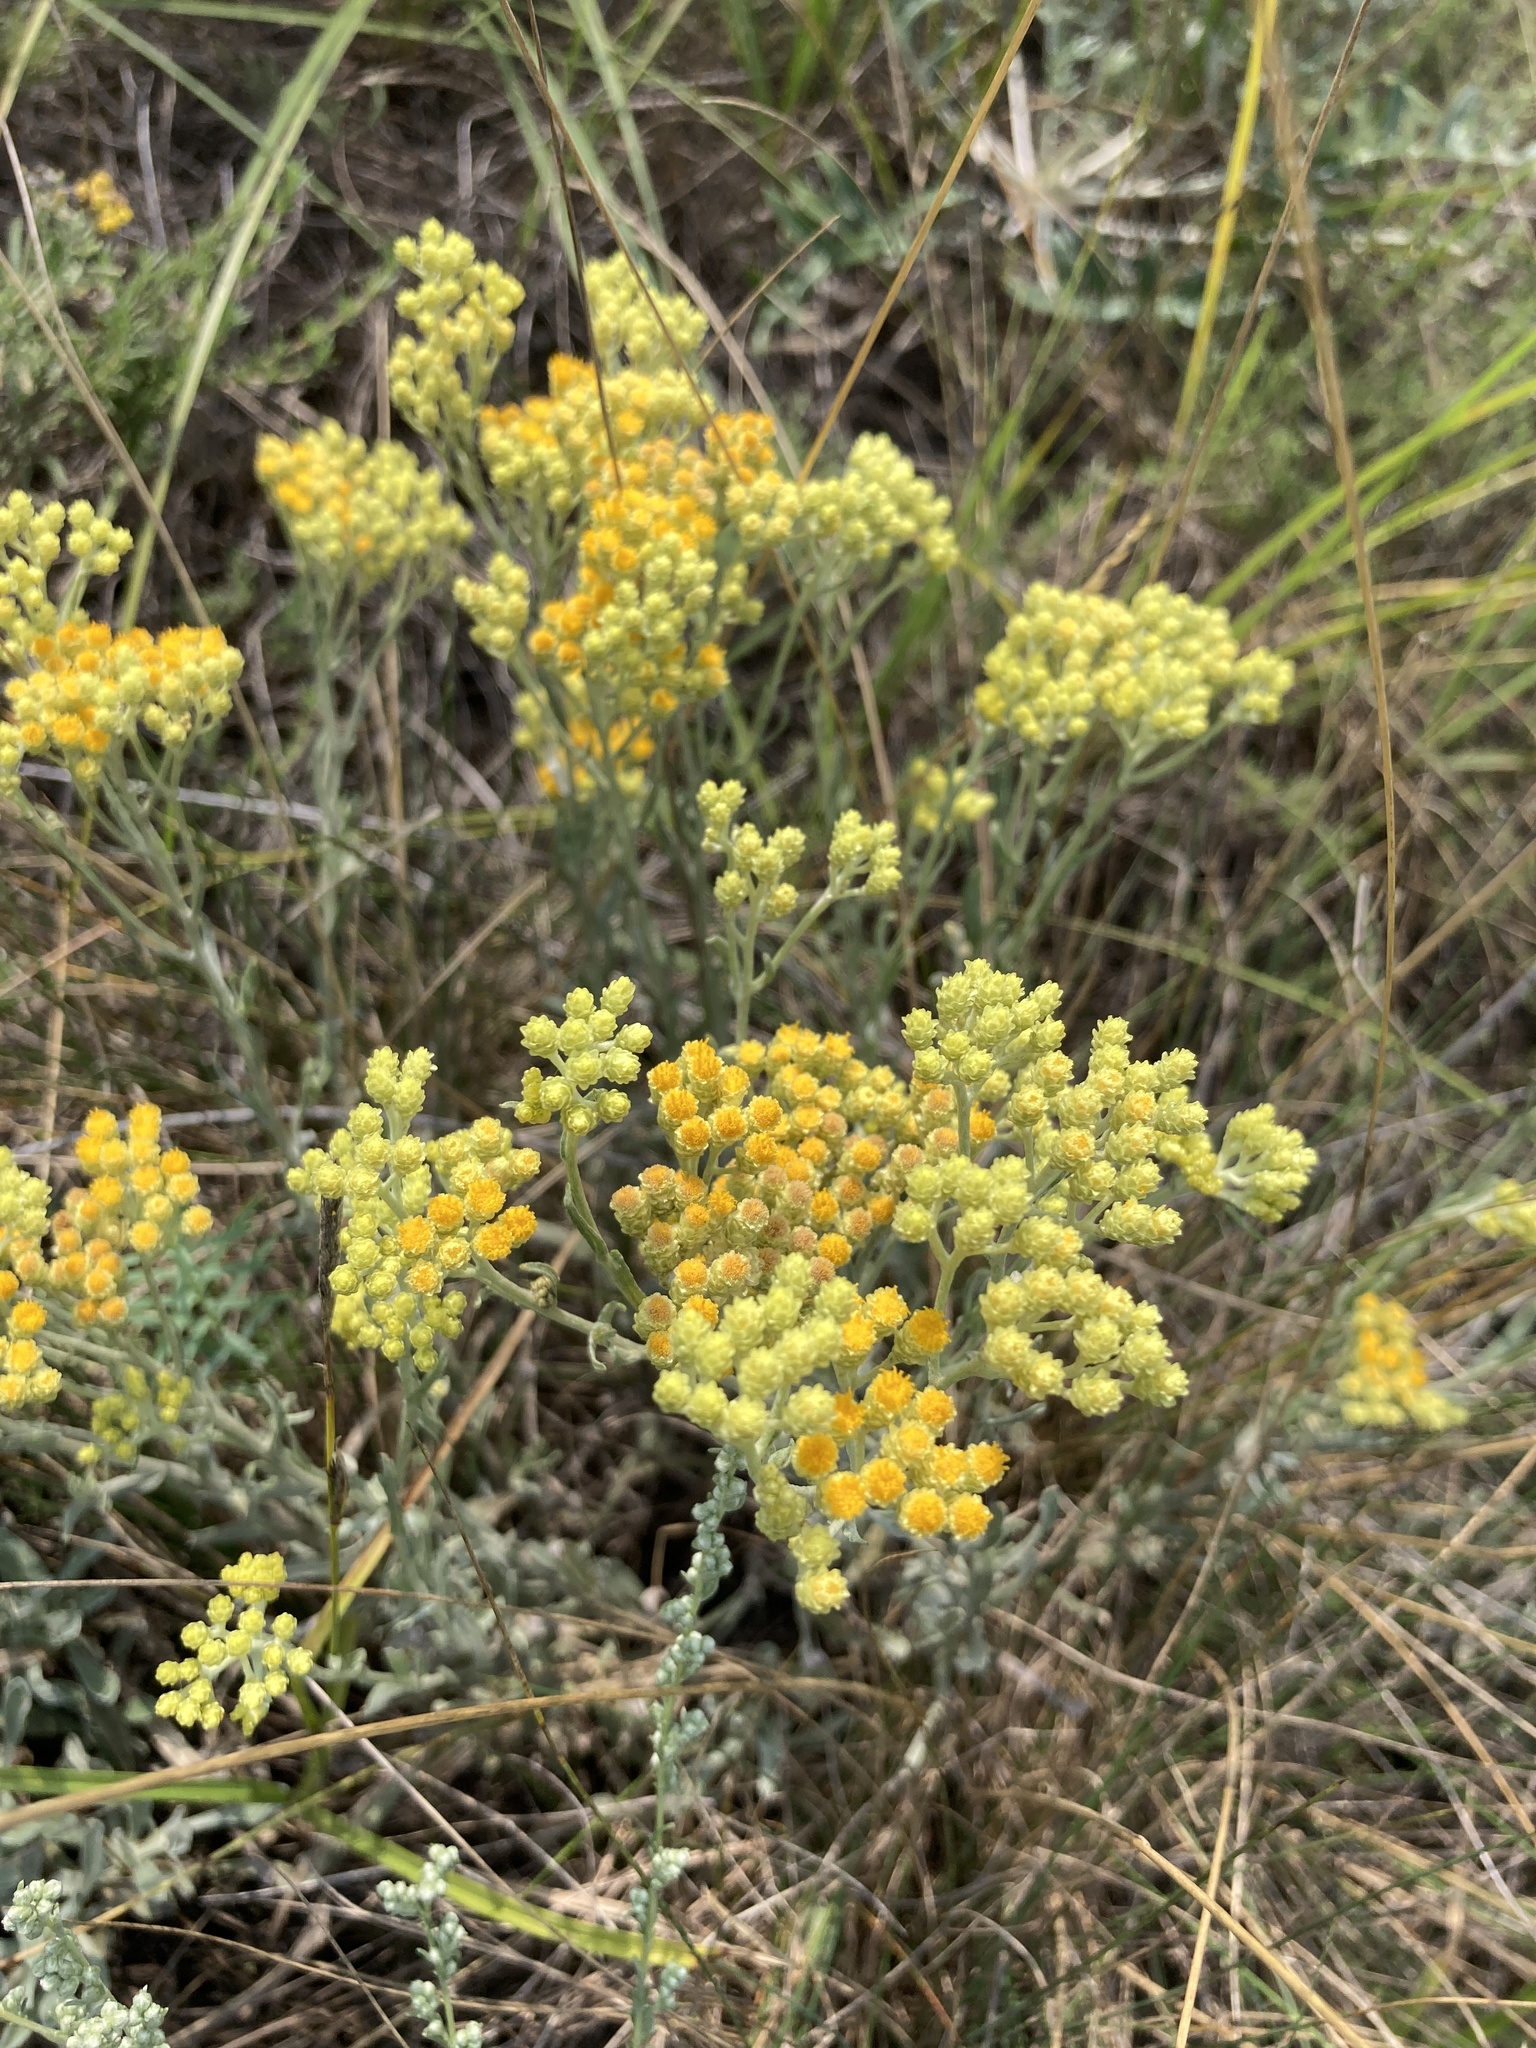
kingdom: Plantae
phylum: Tracheophyta
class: Magnoliopsida
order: Asterales
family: Asteraceae
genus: Helichrysum
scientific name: Helichrysum arenarium
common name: Strawflower
